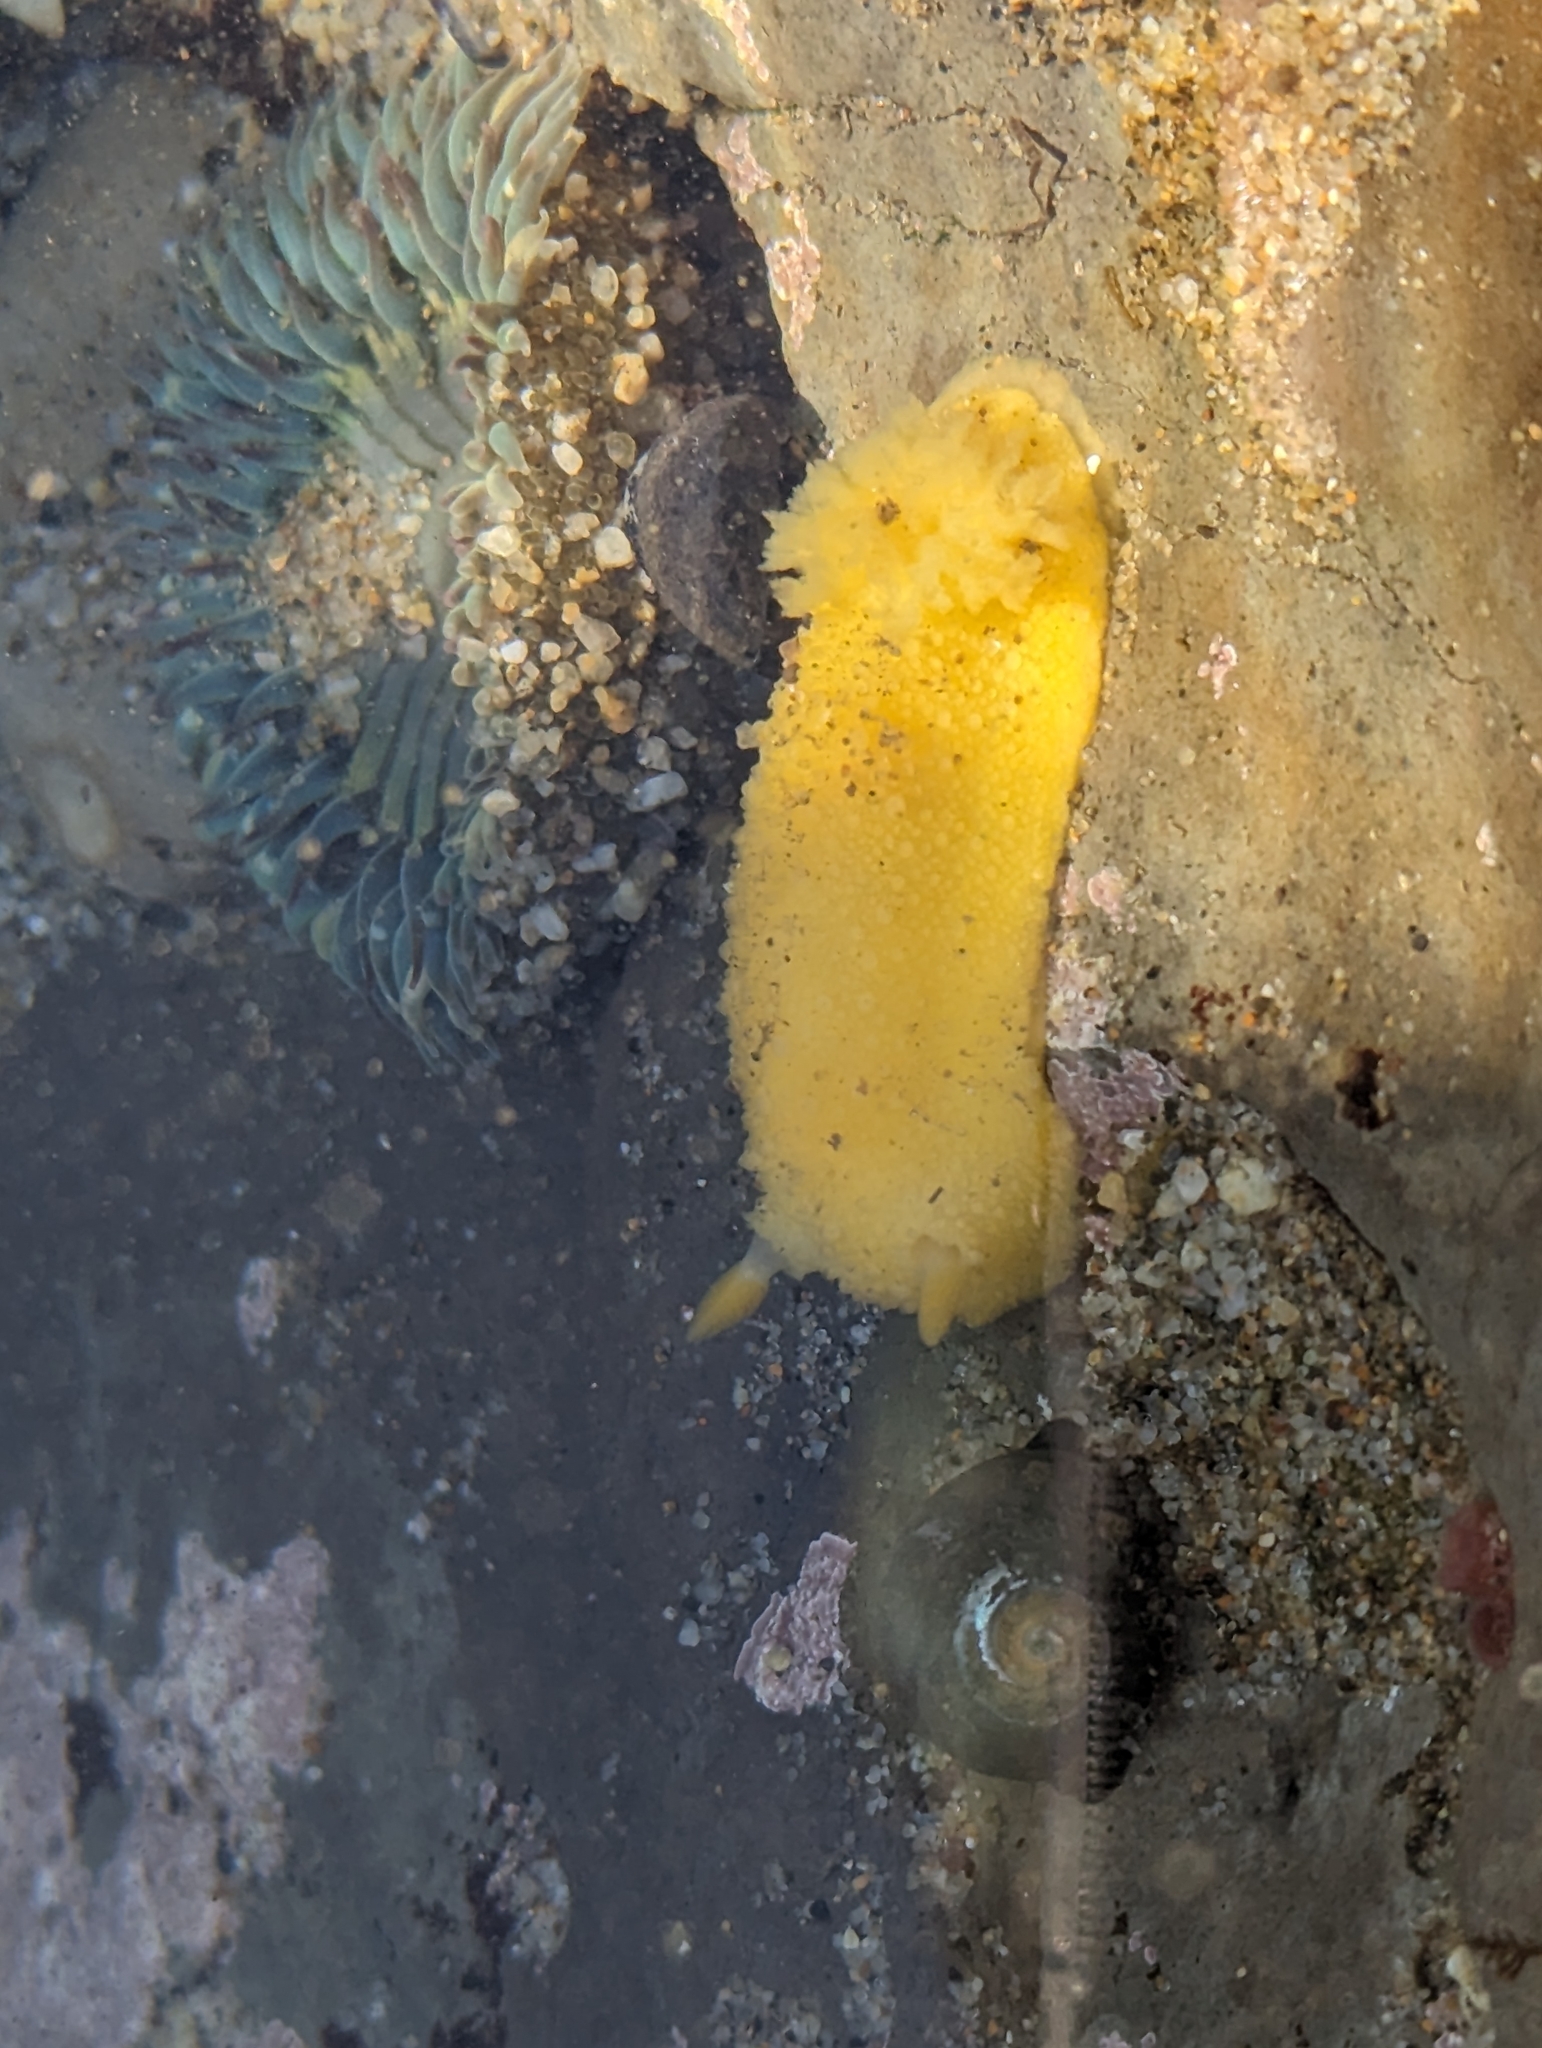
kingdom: Animalia
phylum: Mollusca
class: Gastropoda
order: Nudibranchia
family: Dorididae
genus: Doris
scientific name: Doris montereyensis
